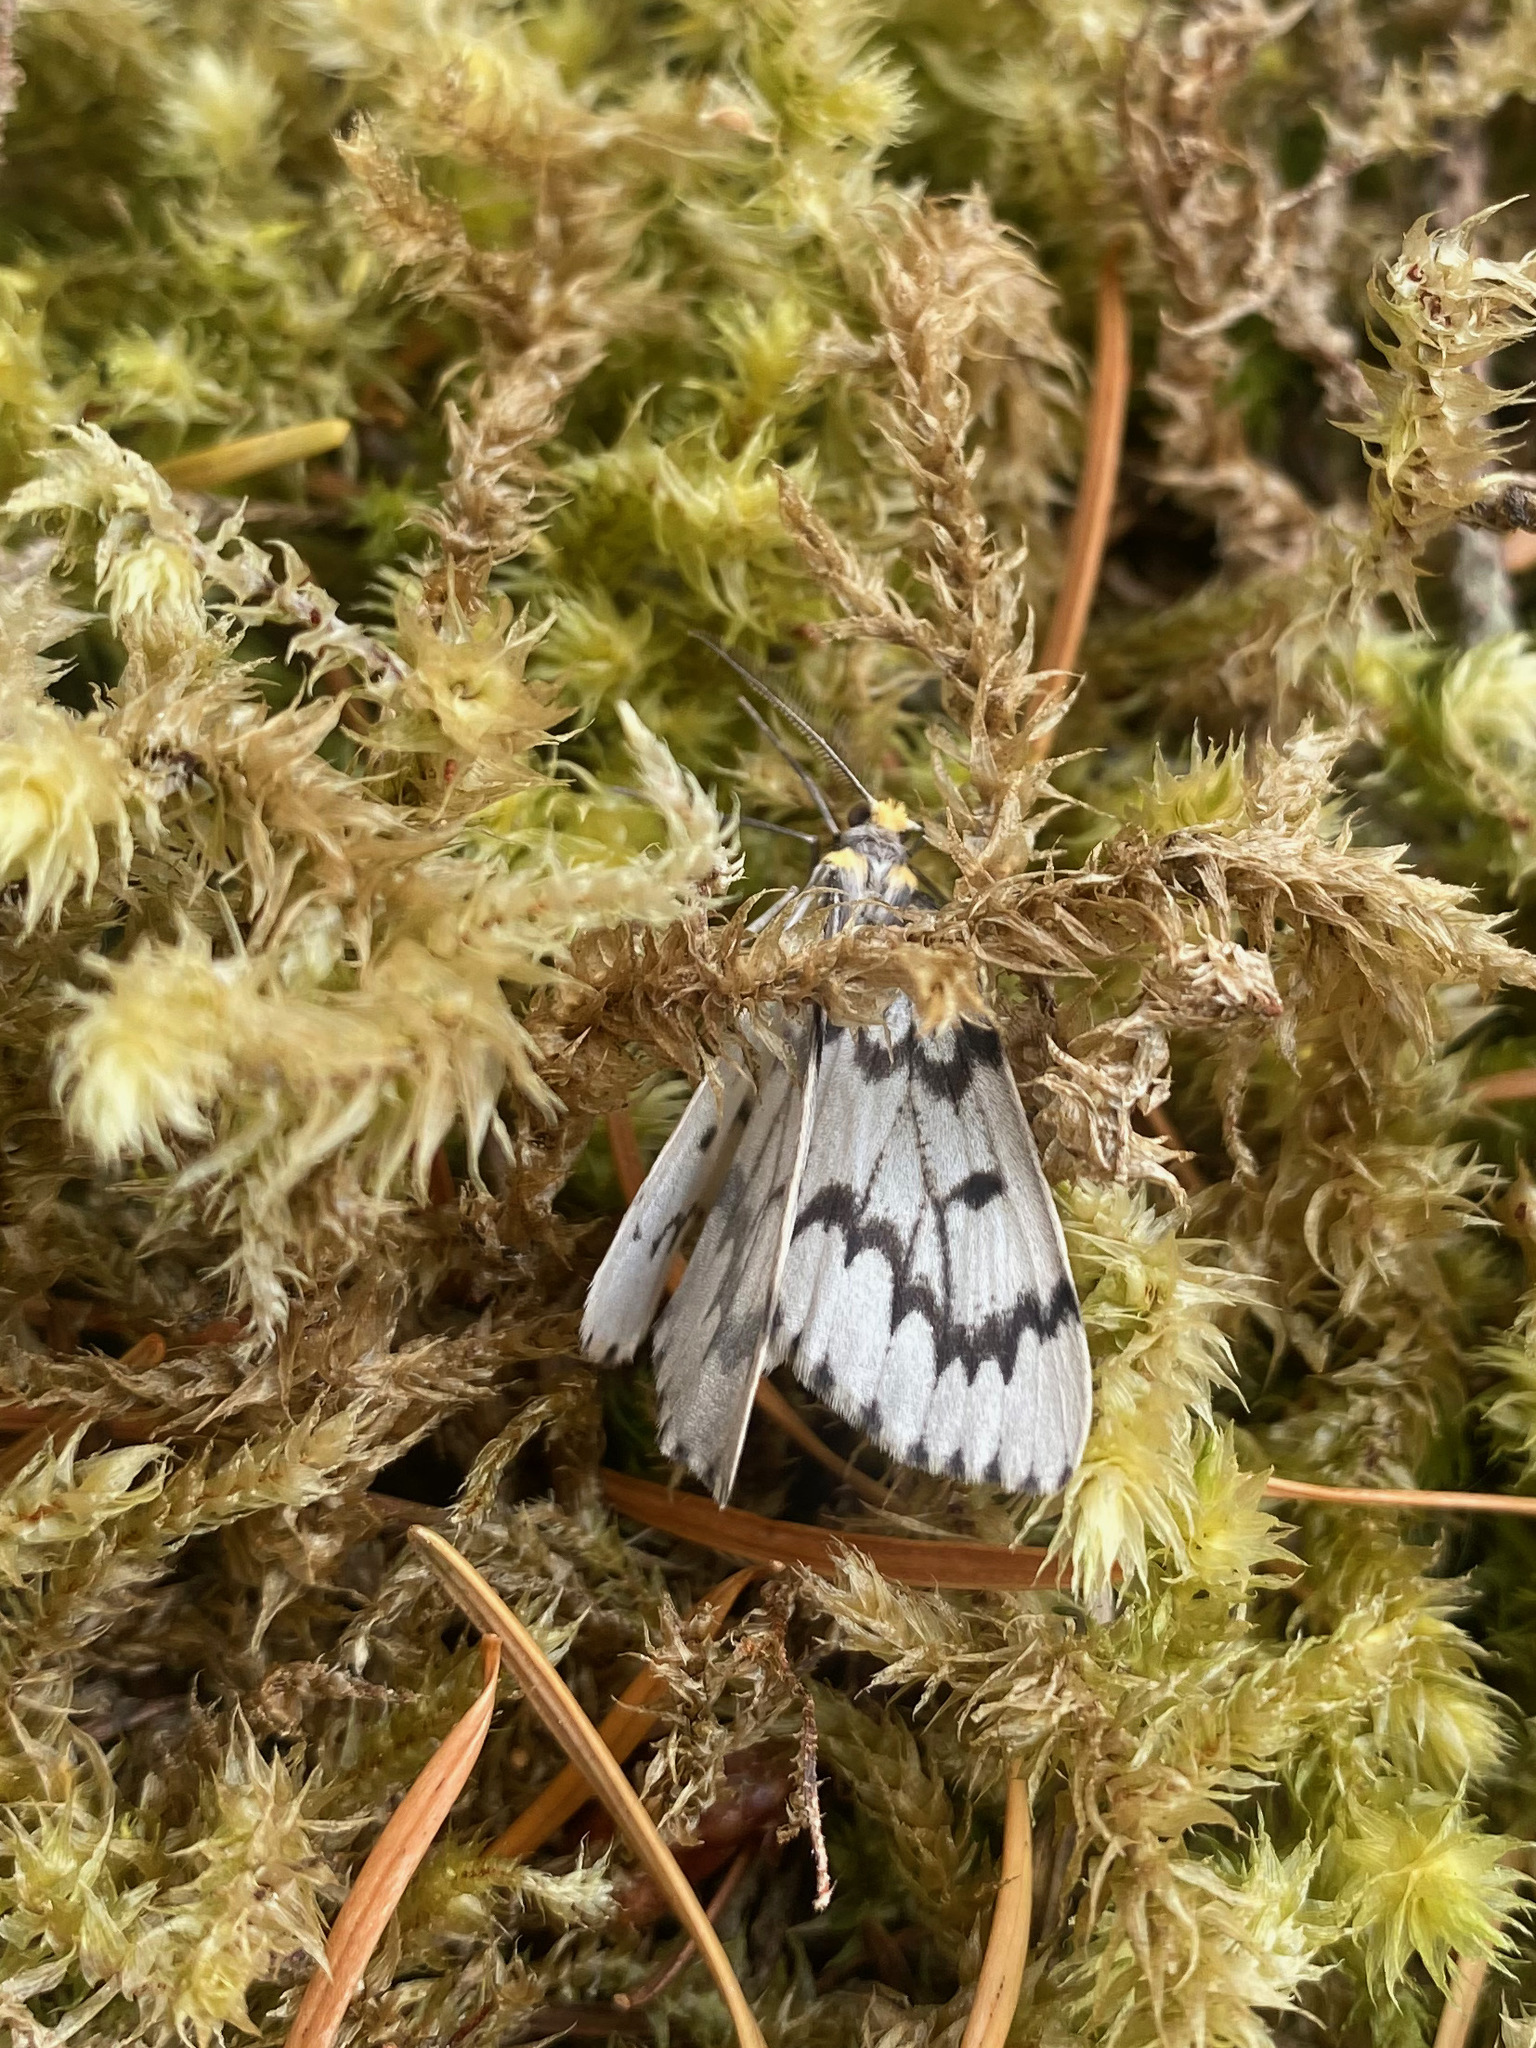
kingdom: Animalia
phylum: Arthropoda
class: Insecta
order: Lepidoptera
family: Geometridae
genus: Nepytia
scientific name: Nepytia phantasmaria
